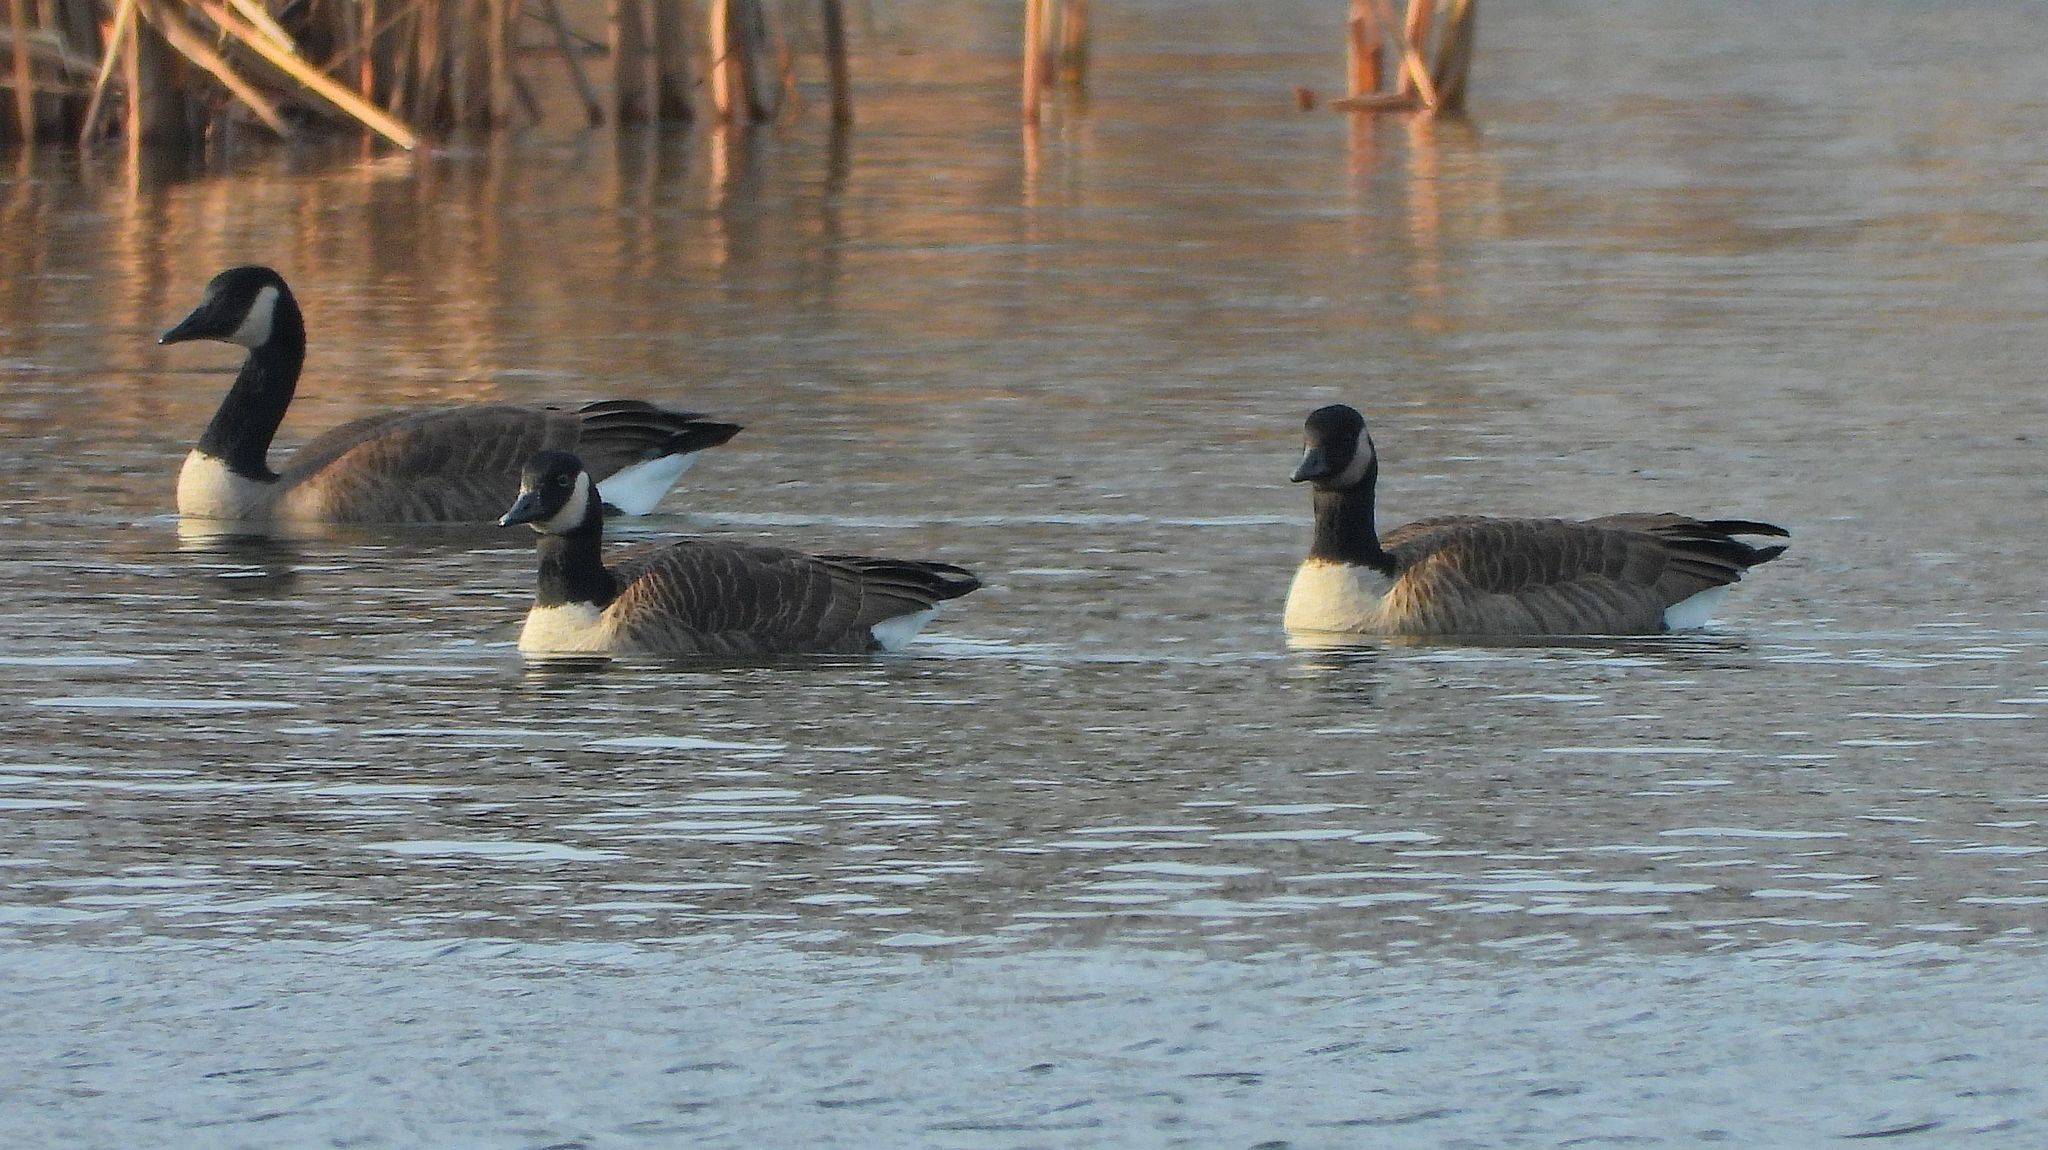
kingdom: Animalia
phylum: Chordata
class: Aves
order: Anseriformes
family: Anatidae
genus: Branta
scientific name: Branta canadensis
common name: Canada goose
